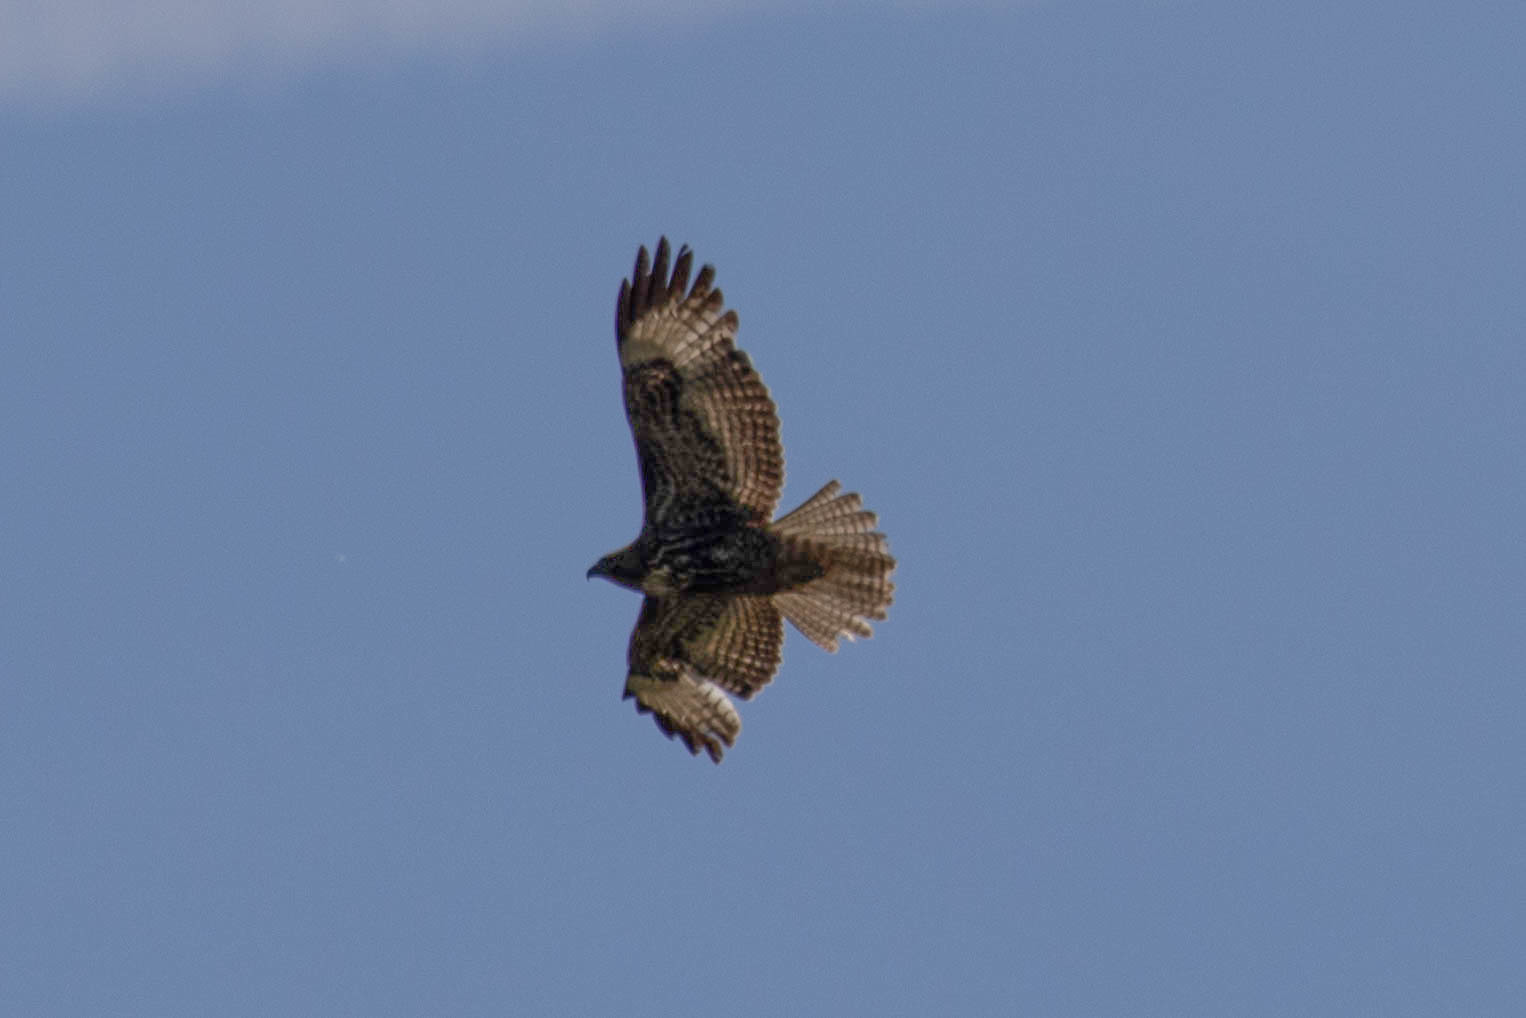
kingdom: Animalia
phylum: Chordata
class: Aves
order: Accipitriformes
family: Accipitridae
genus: Buteo
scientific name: Buteo jamaicensis
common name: Red-tailed hawk
